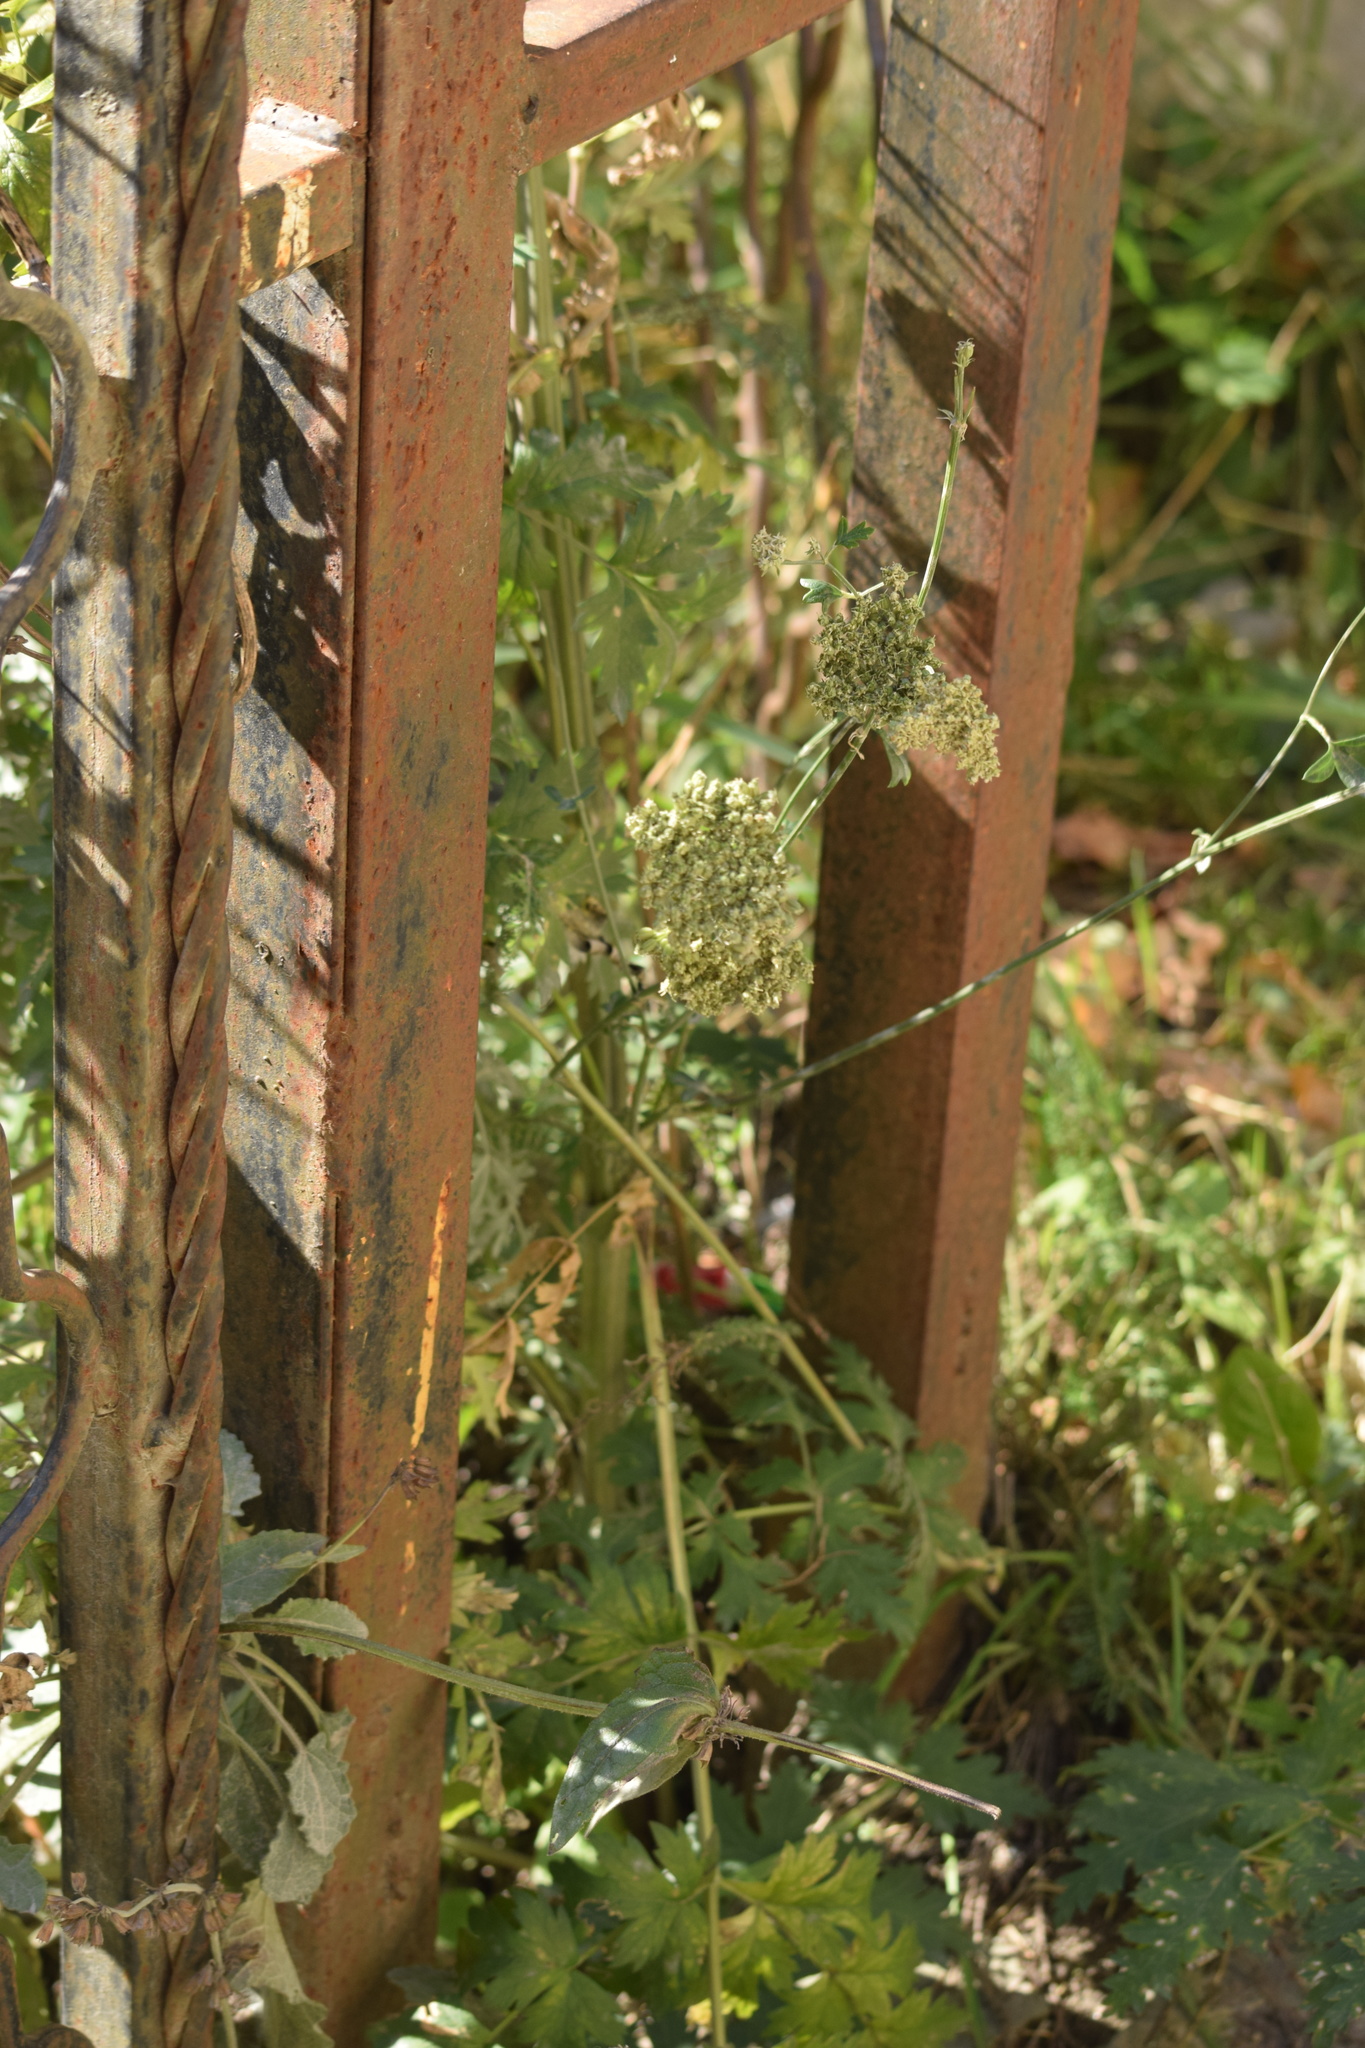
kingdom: Plantae
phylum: Tracheophyta
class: Magnoliopsida
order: Apiales
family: Apiaceae
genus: Seseli
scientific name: Seseli libanotis
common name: Mooncarrot
